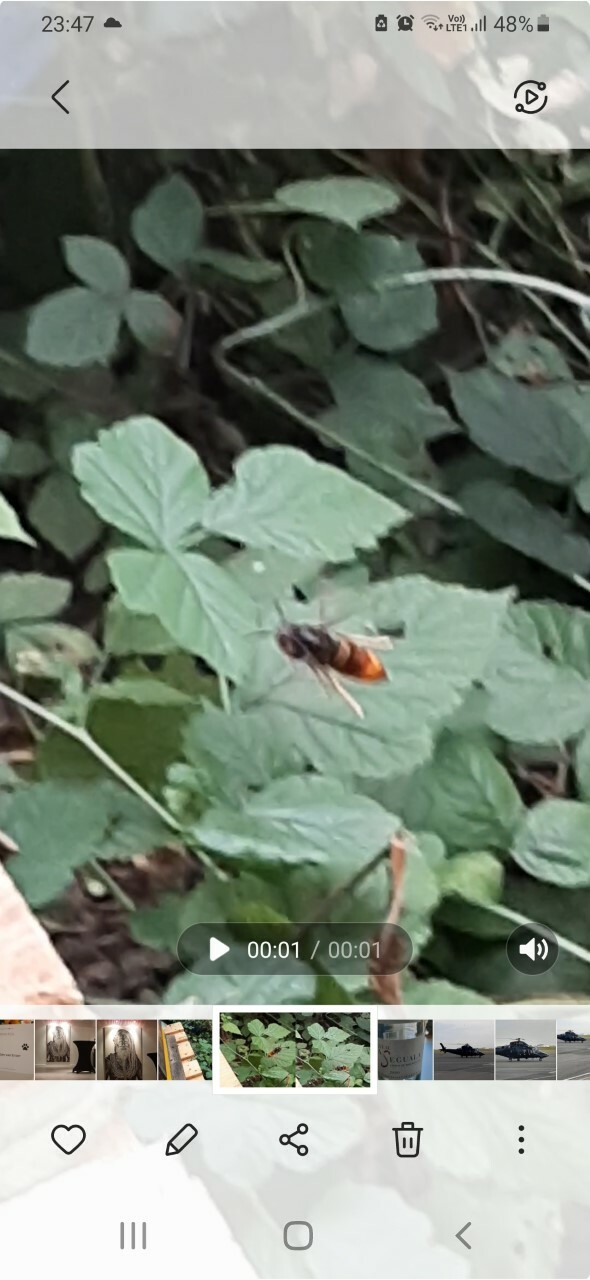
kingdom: Animalia
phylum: Arthropoda
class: Insecta
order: Hymenoptera
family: Vespidae
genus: Vespa
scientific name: Vespa velutina
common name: Asian hornet
